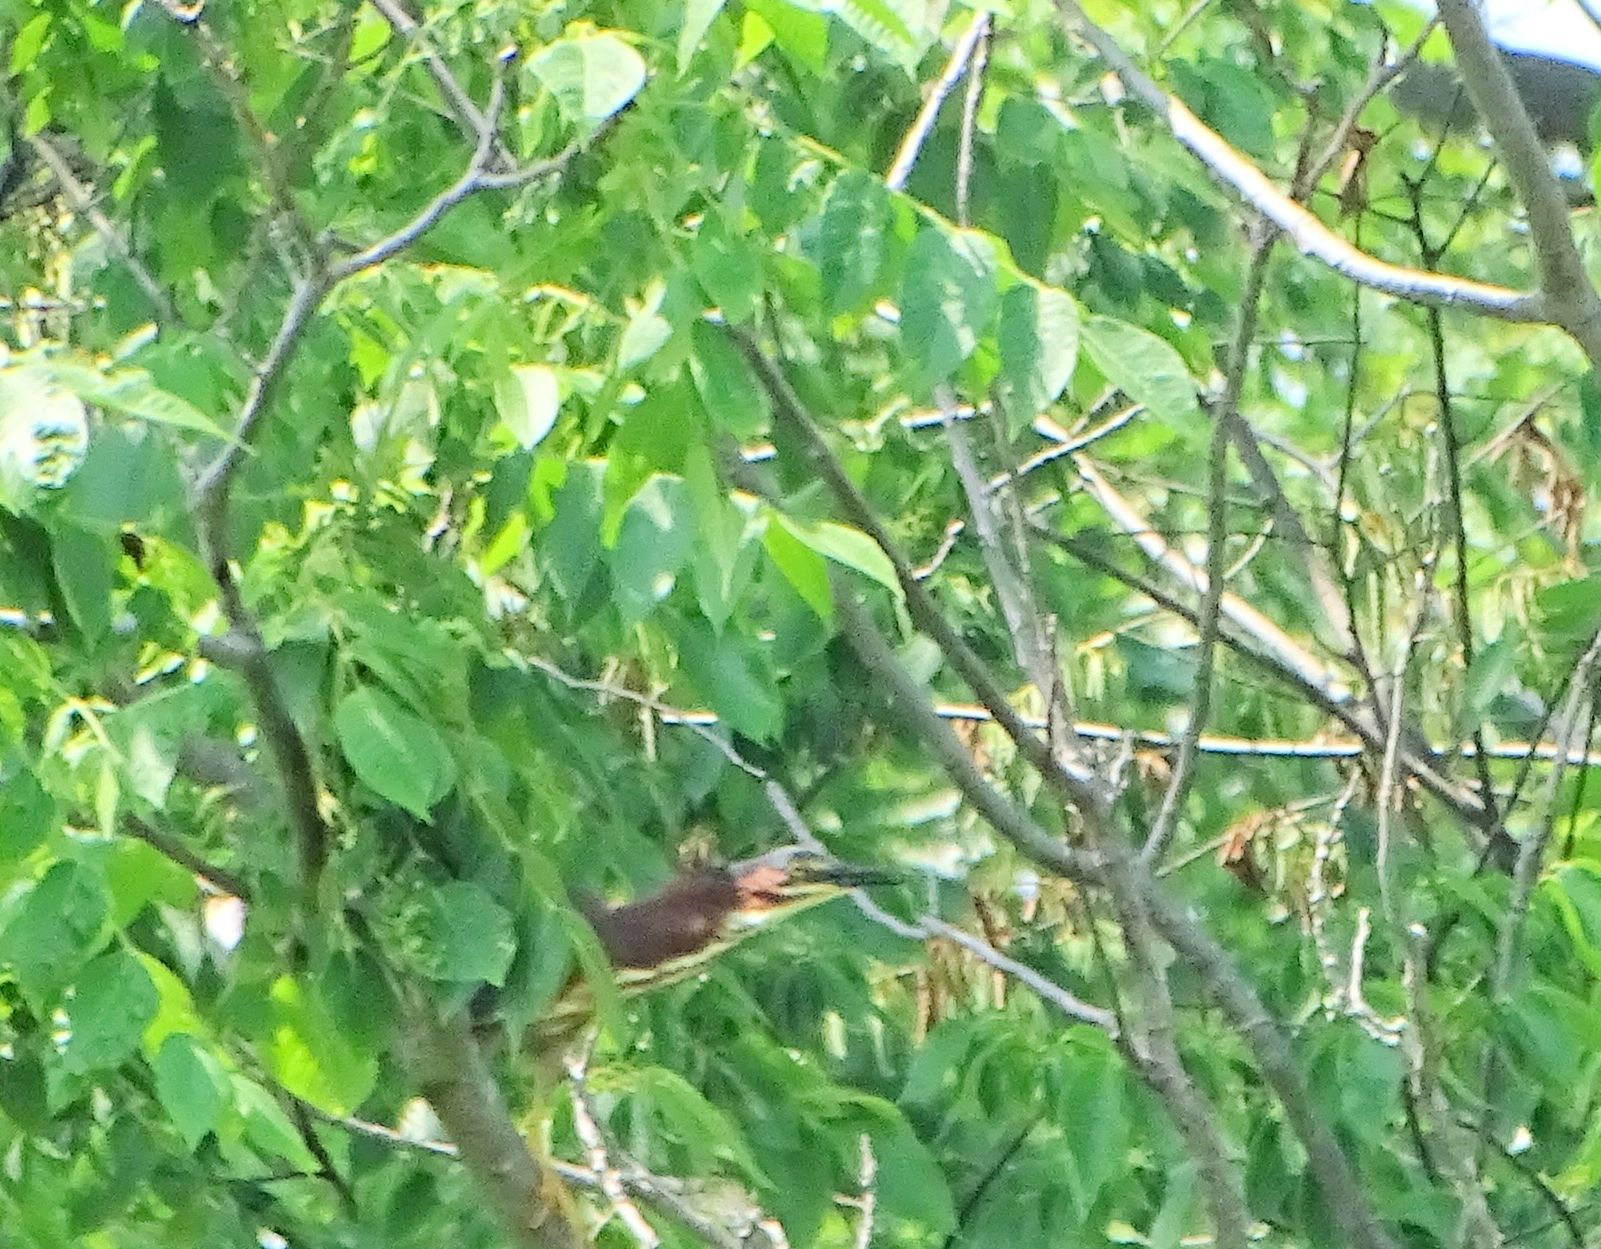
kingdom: Animalia
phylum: Chordata
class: Aves
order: Pelecaniformes
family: Ardeidae
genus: Butorides
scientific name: Butorides virescens
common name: Green heron
